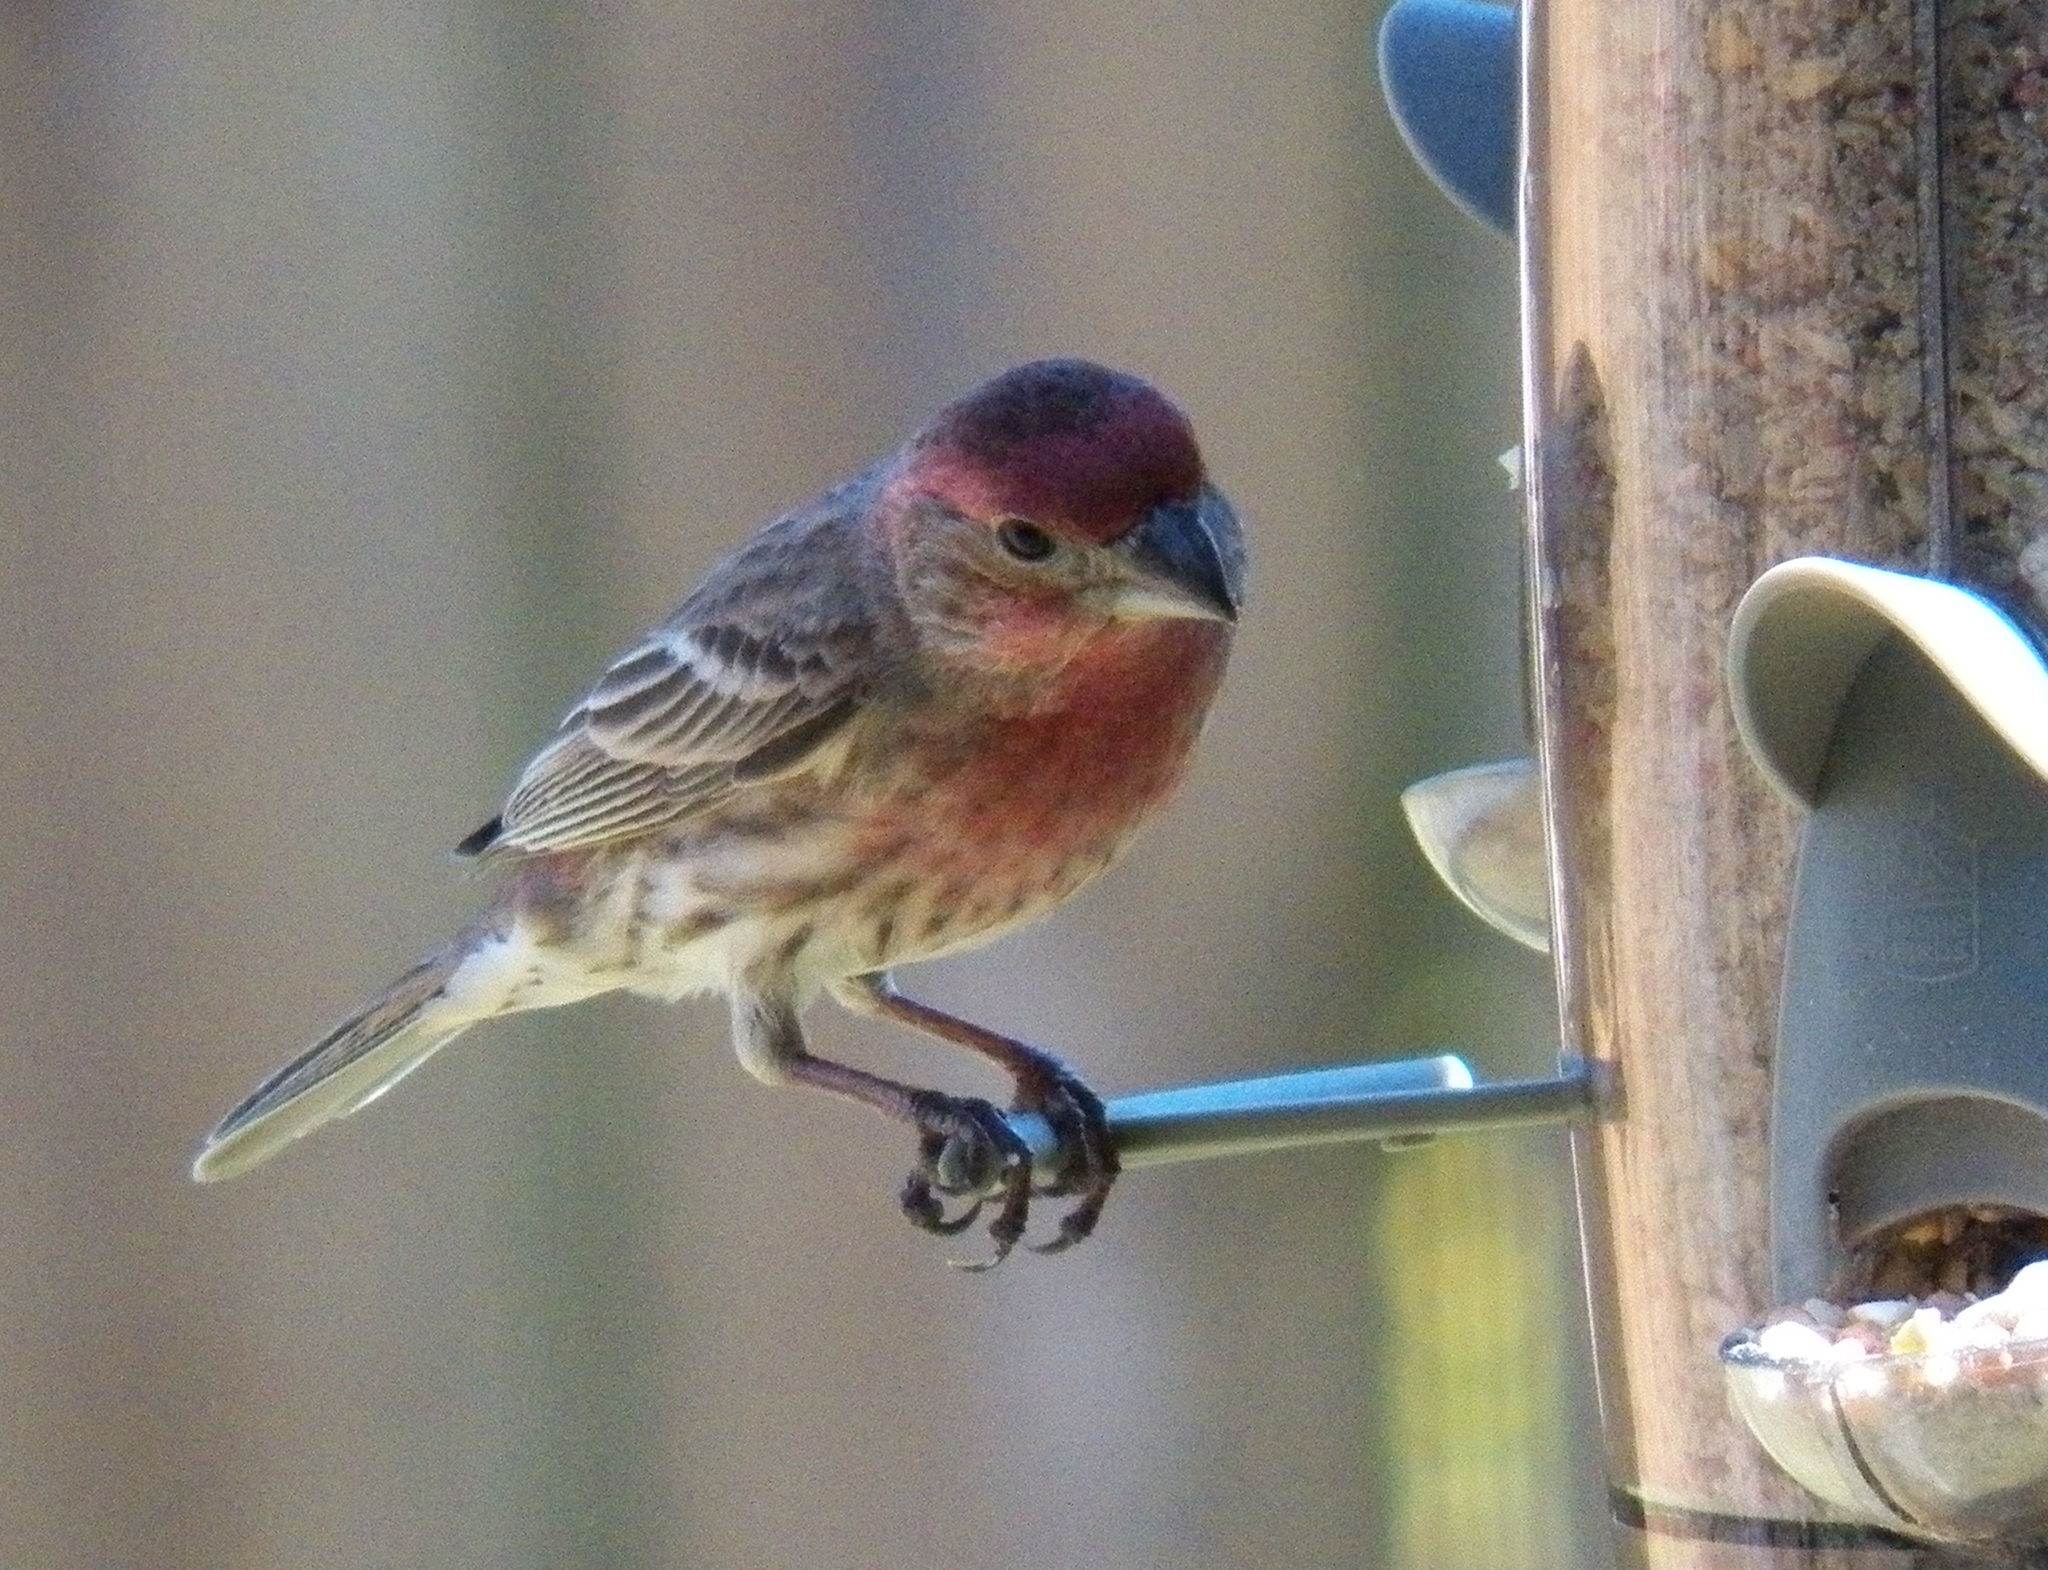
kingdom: Animalia
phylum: Chordata
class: Aves
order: Passeriformes
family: Fringillidae
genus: Haemorhous
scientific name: Haemorhous mexicanus
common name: House finch
